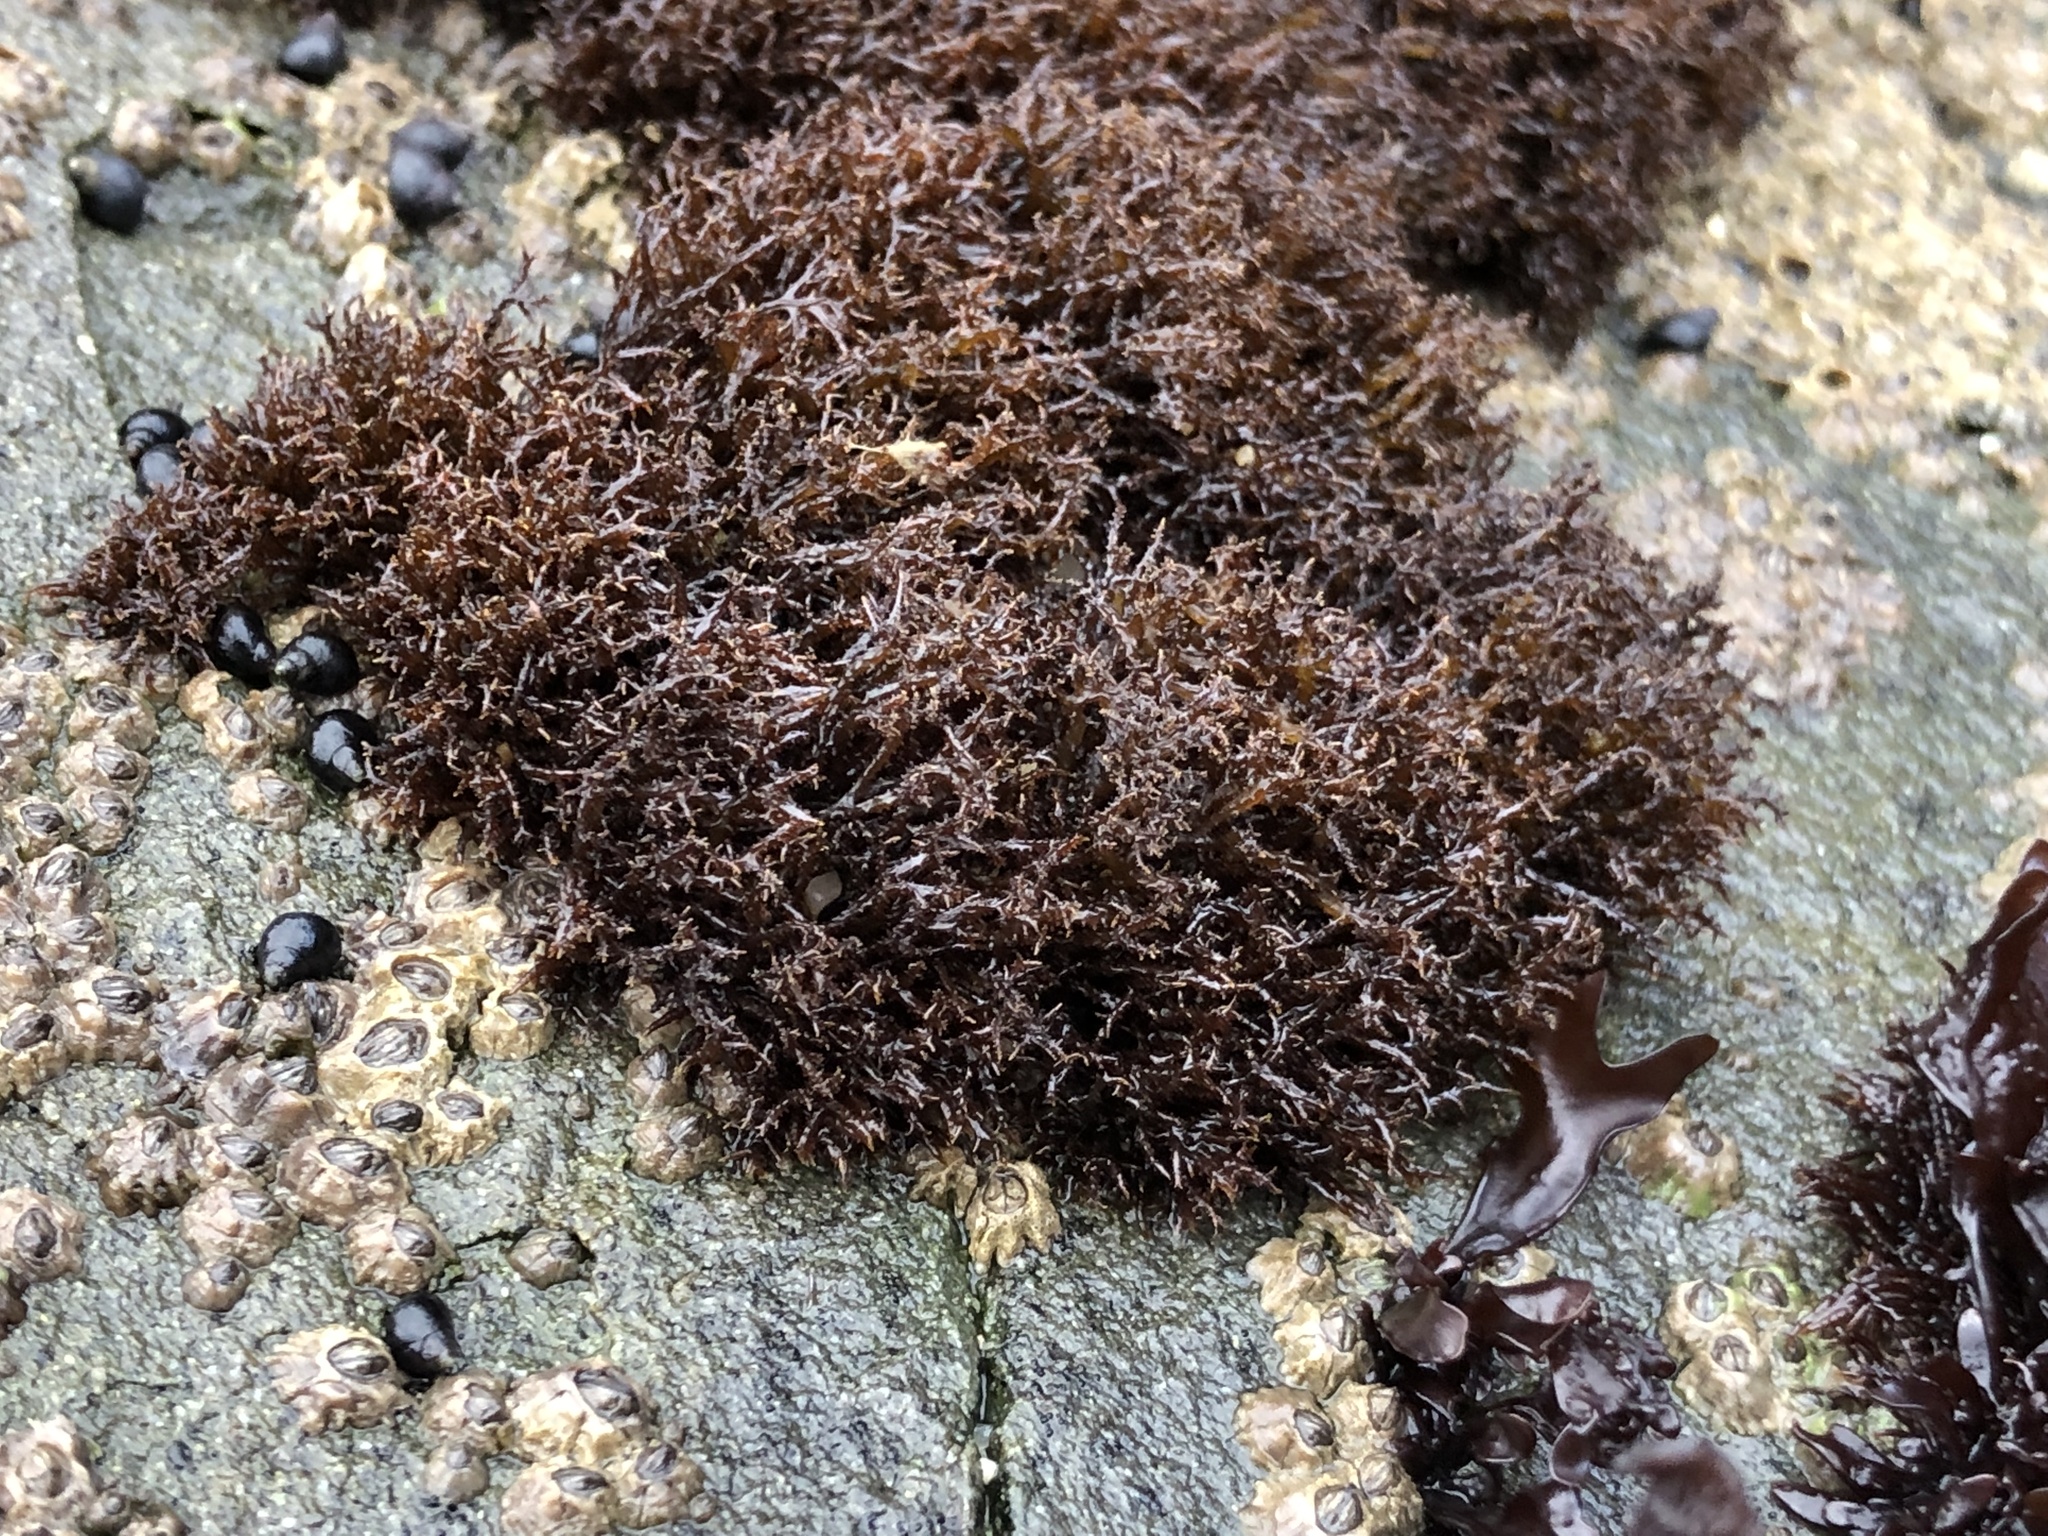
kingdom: Plantae
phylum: Rhodophyta
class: Florideophyceae
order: Gigartinales
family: Endocladiaceae
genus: Endocladia
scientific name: Endocladia muricata
